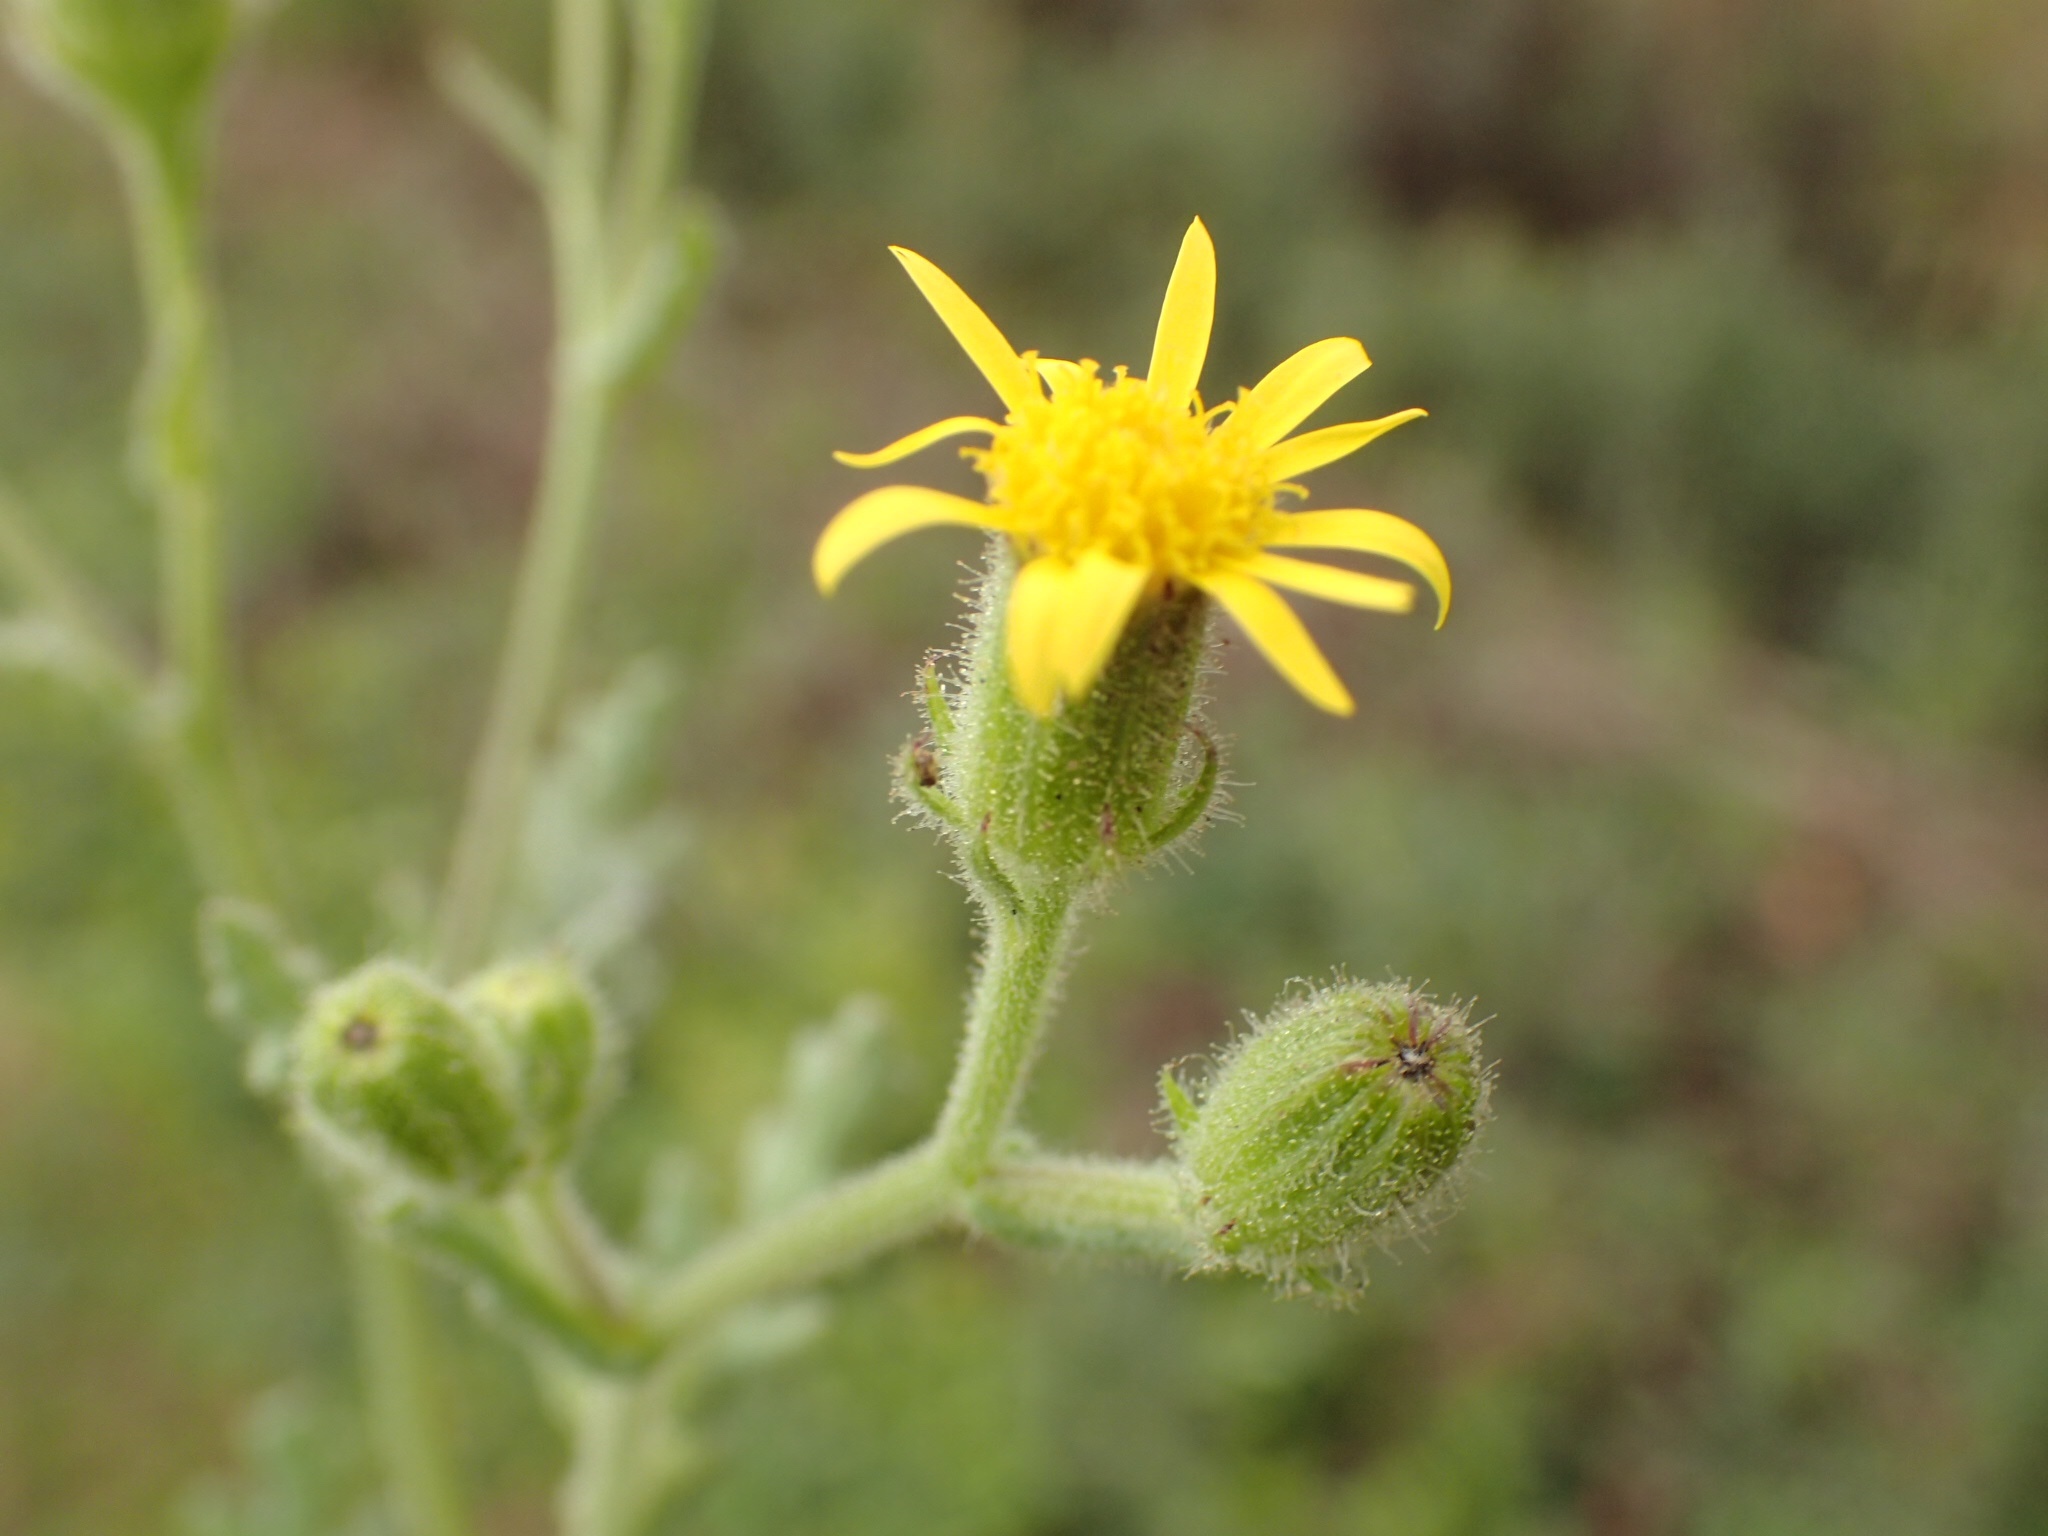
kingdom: Plantae
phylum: Tracheophyta
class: Magnoliopsida
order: Asterales
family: Asteraceae
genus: Senecio
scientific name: Senecio viscosus
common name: Sticky groundsel
